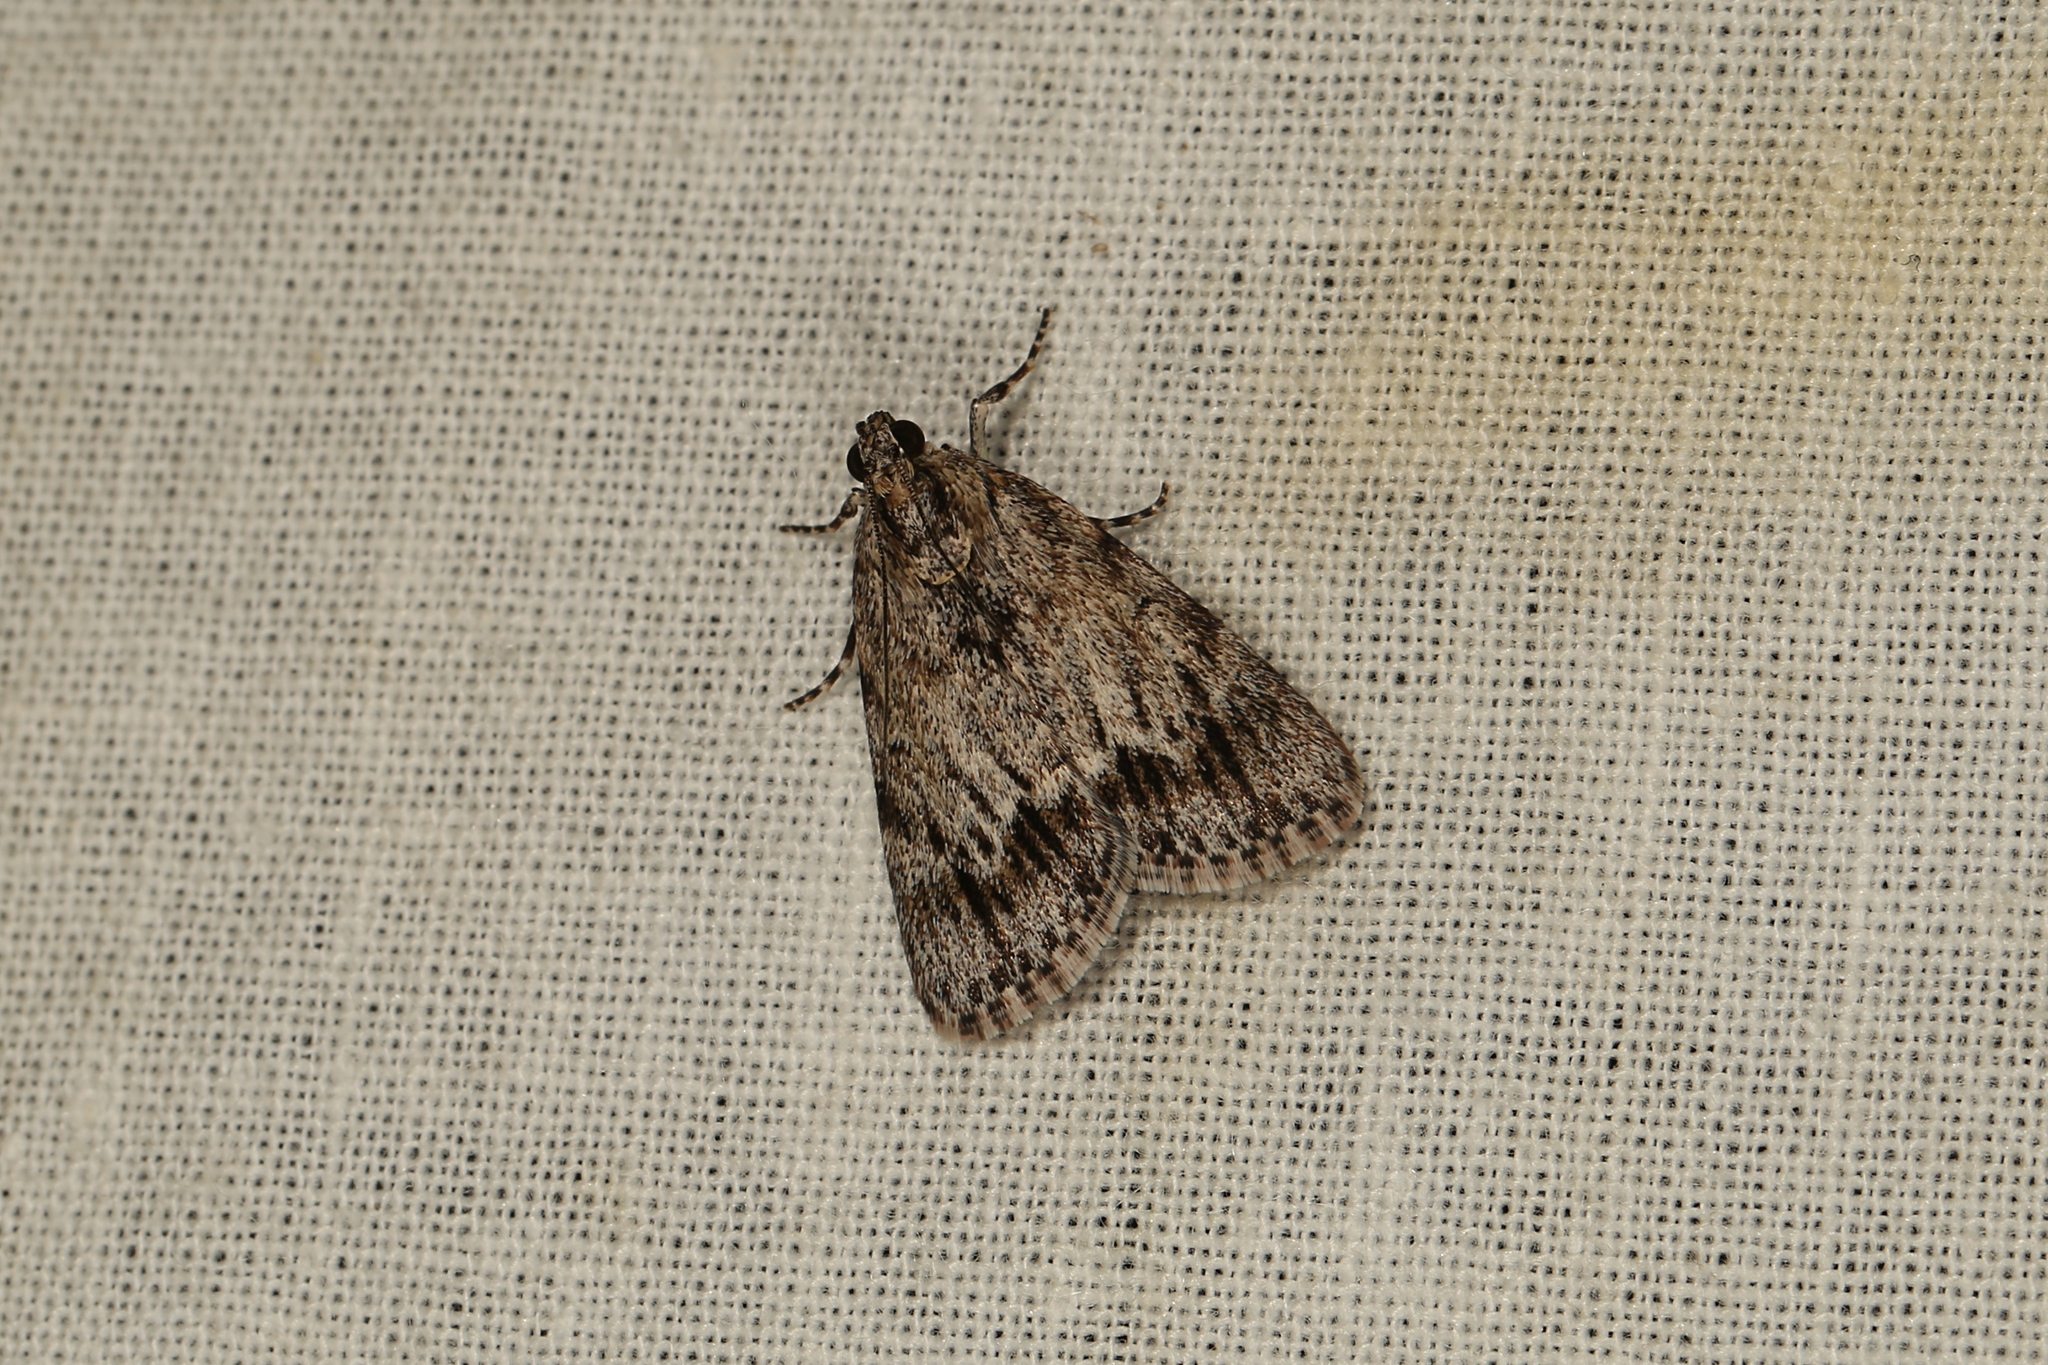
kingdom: Animalia
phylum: Arthropoda
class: Insecta
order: Lepidoptera
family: Pyralidae
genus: Spectrotrota
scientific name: Spectrotrota fimbrialis
